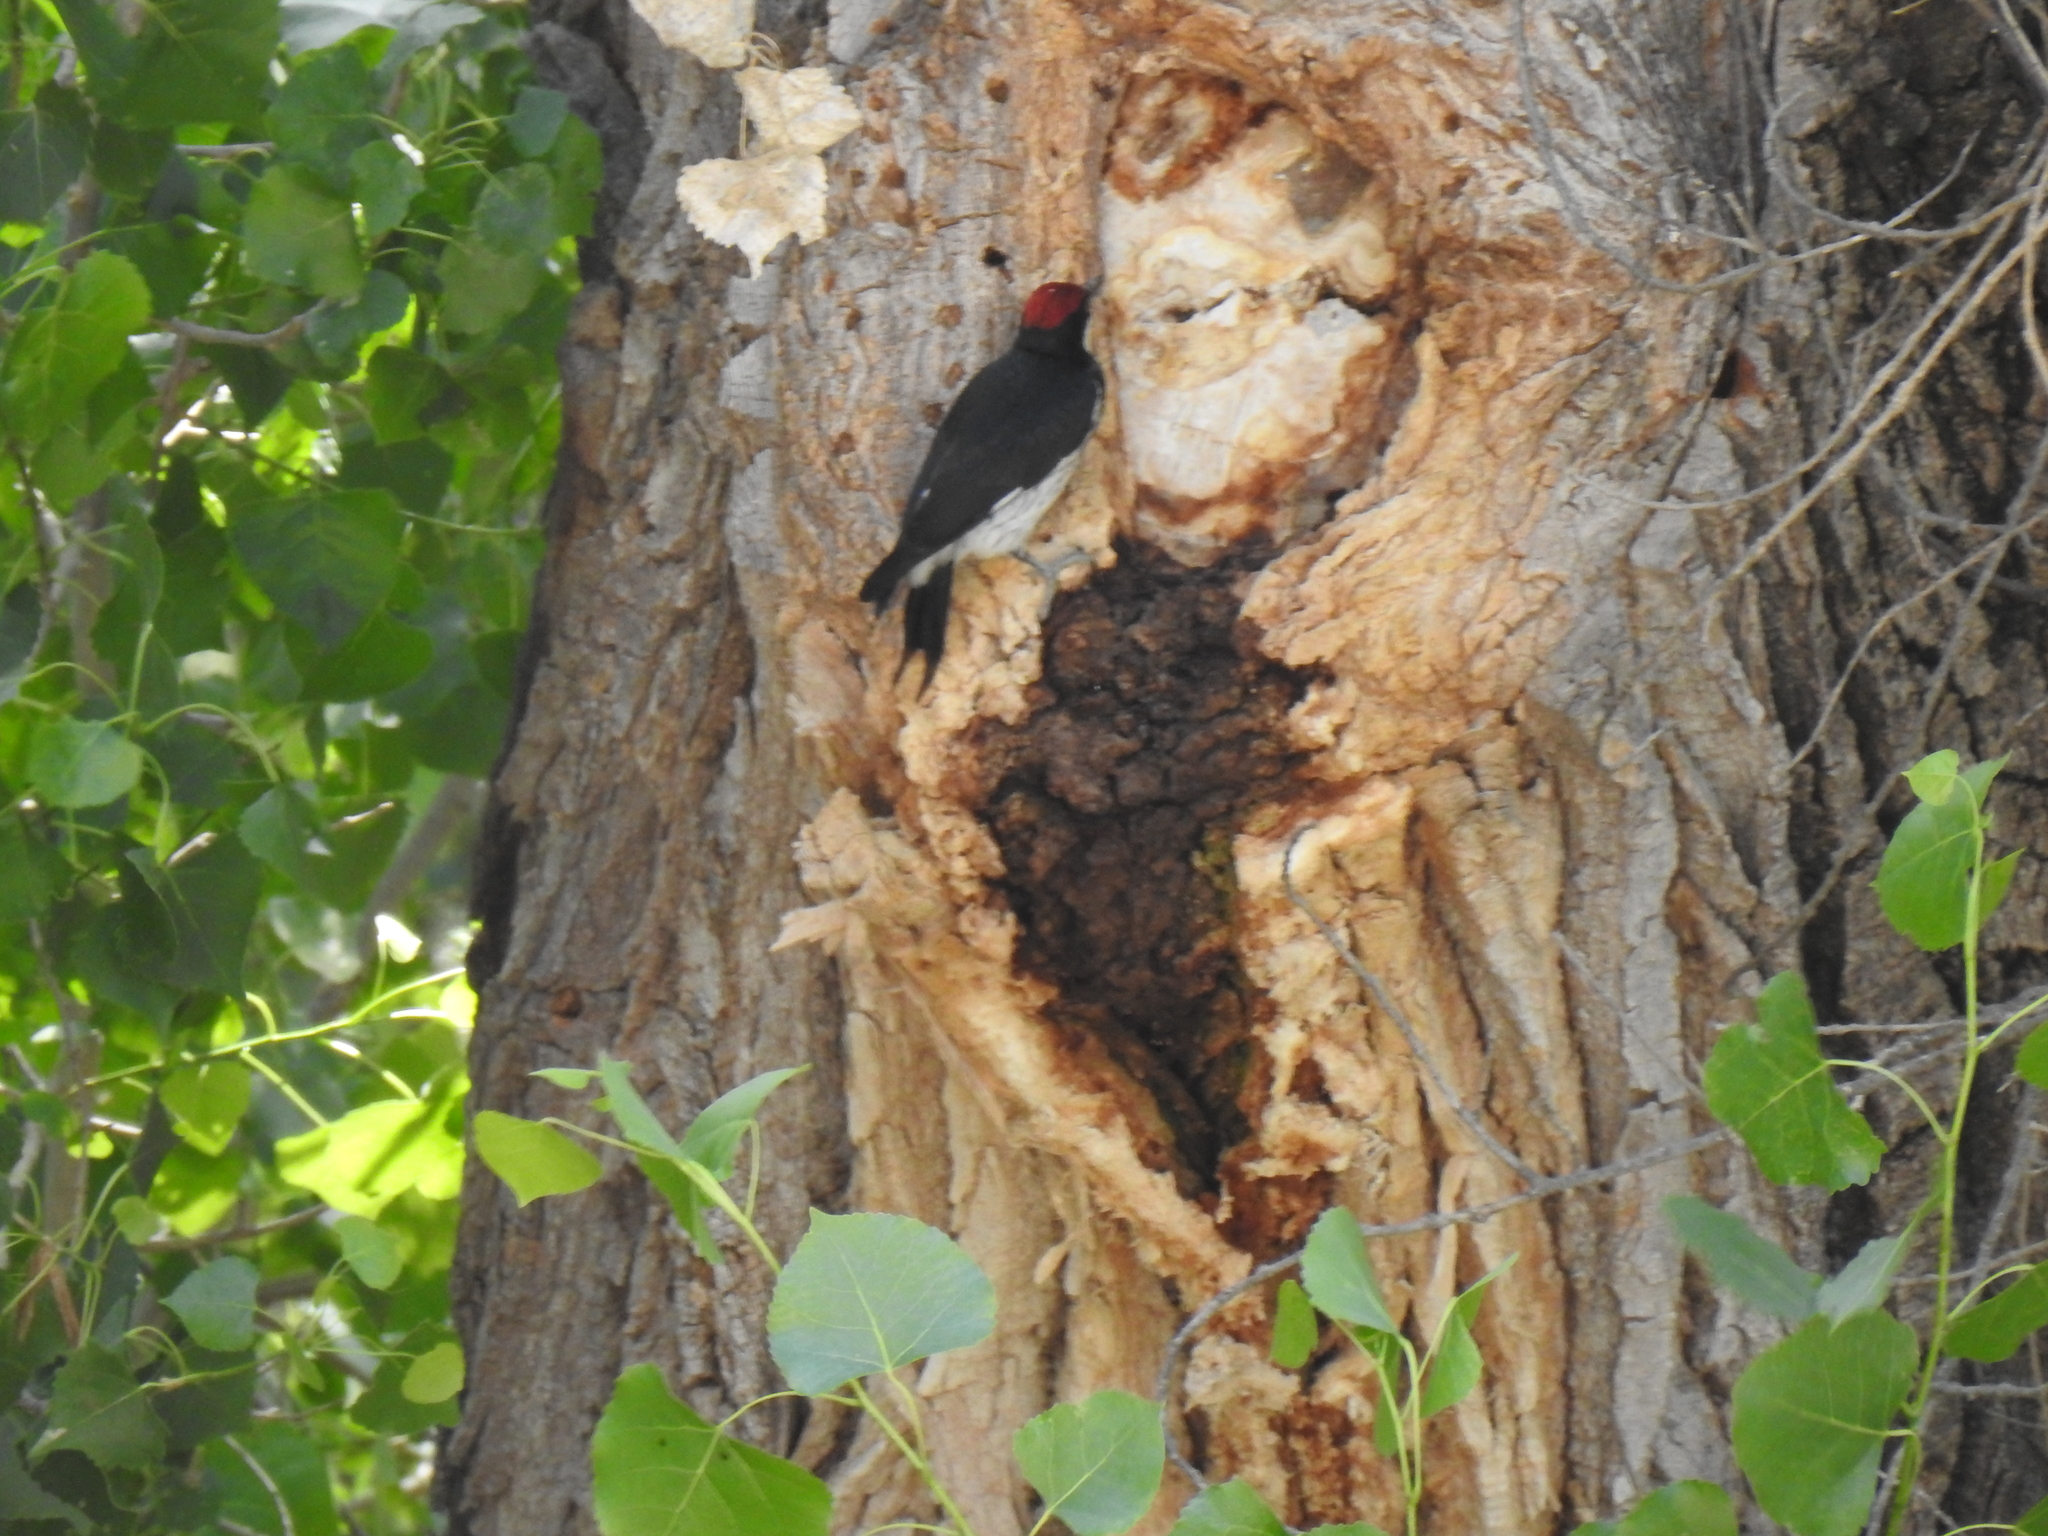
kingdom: Animalia
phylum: Chordata
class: Aves
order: Piciformes
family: Picidae
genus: Melanerpes
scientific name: Melanerpes formicivorus
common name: Acorn woodpecker
